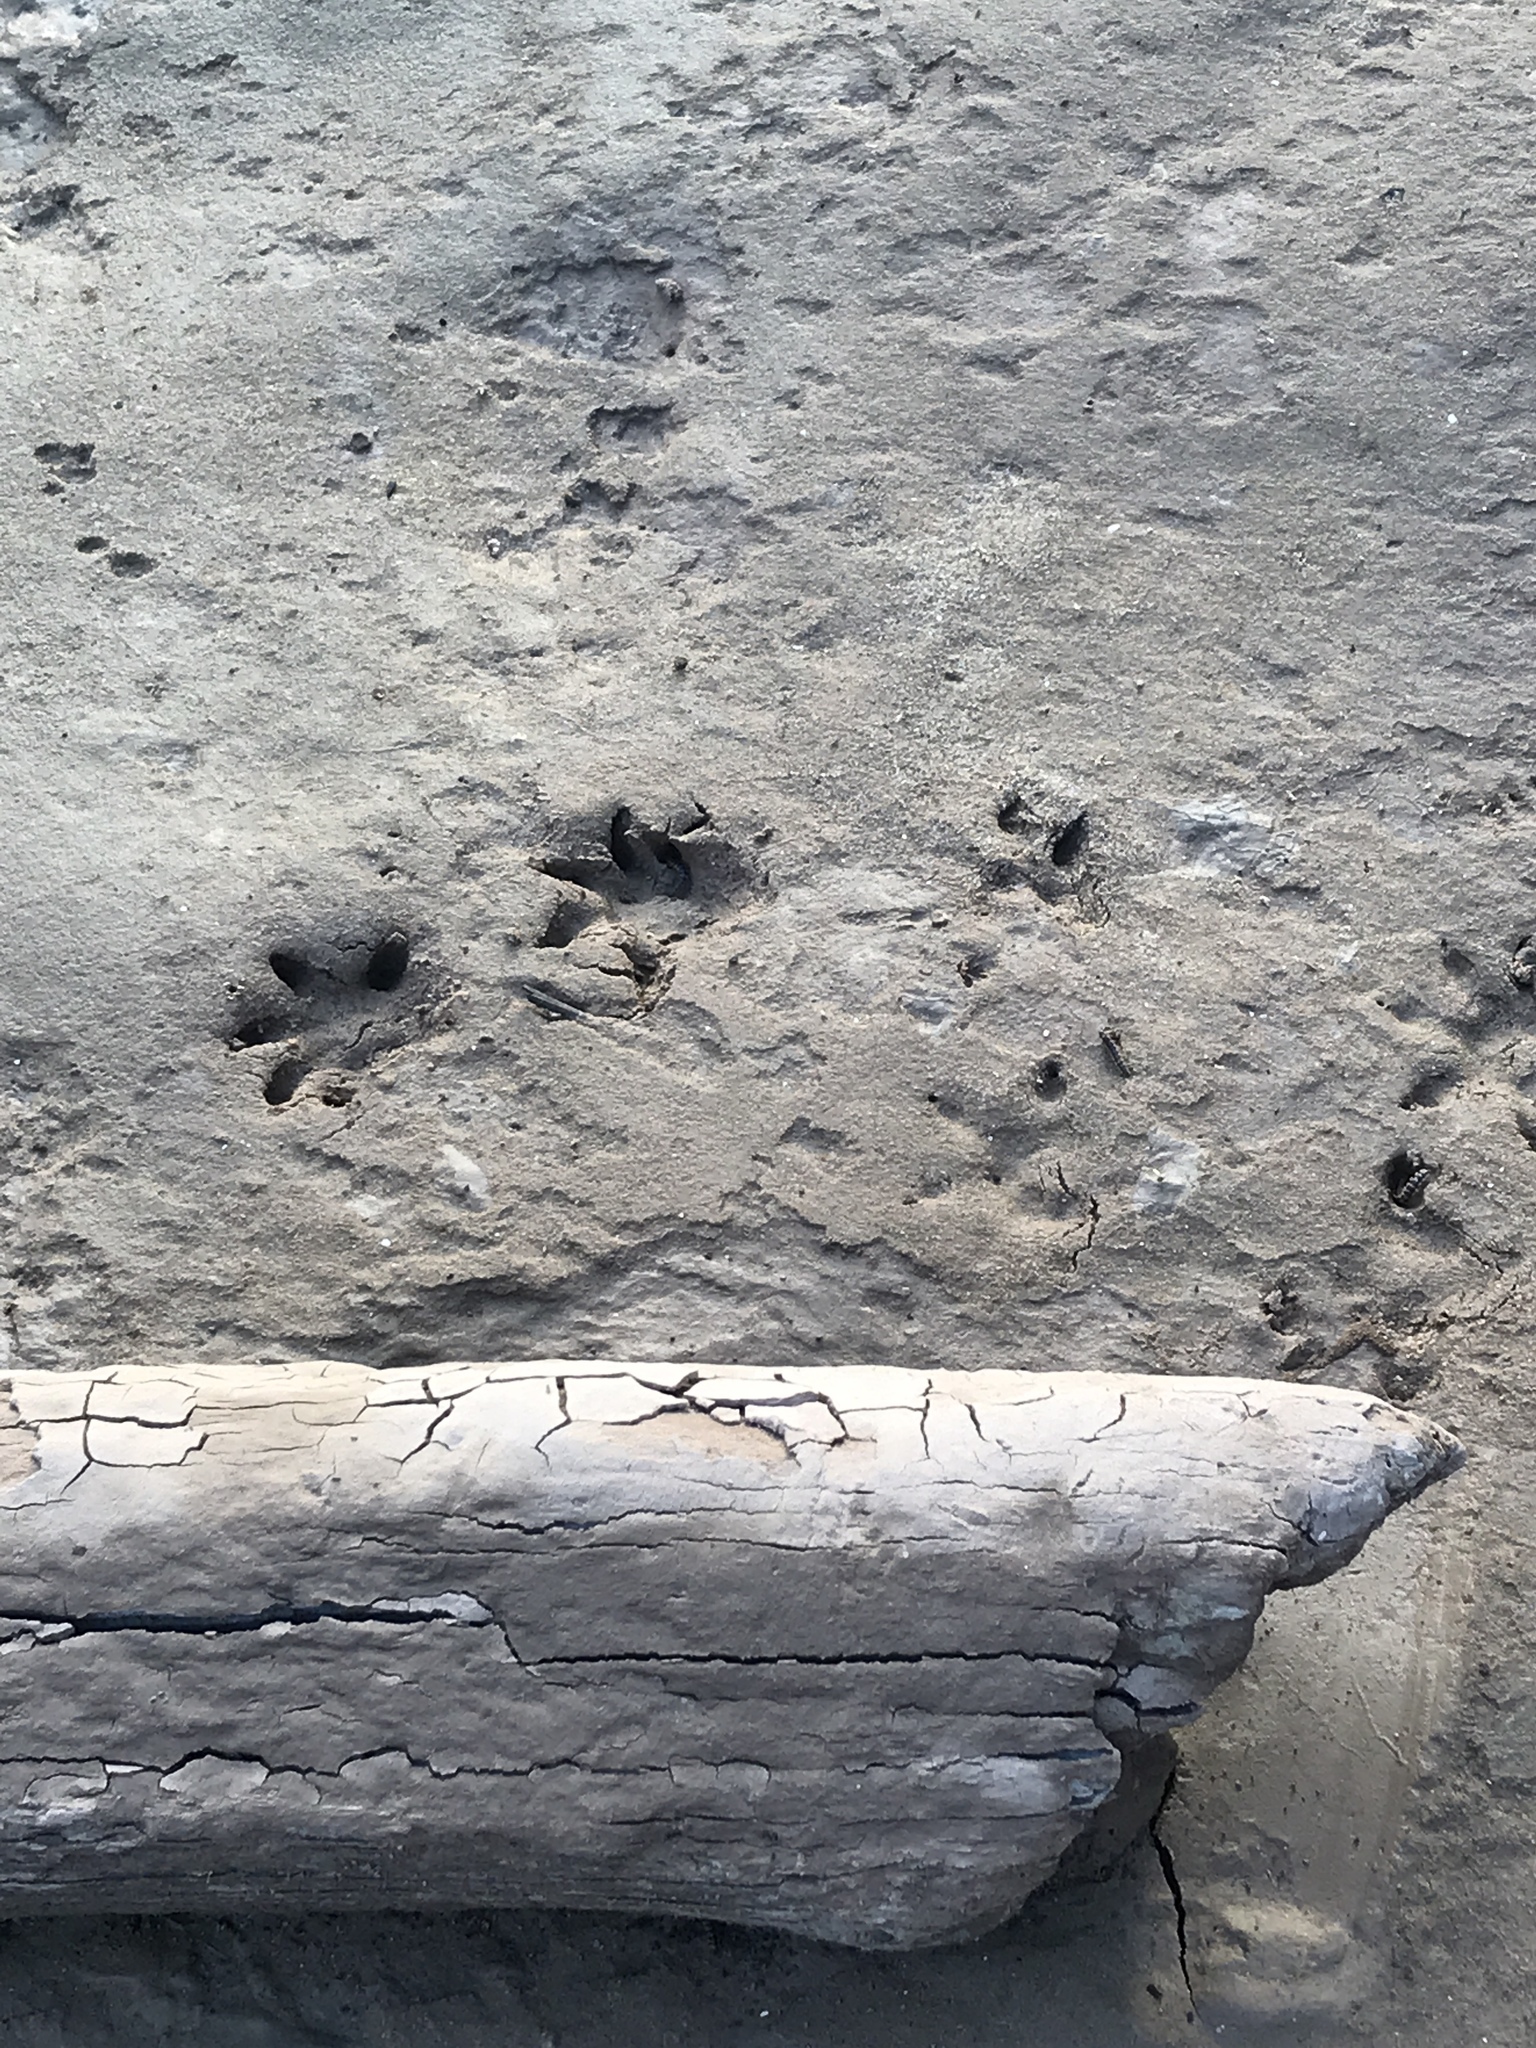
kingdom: Animalia
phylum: Chordata
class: Mammalia
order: Didelphimorphia
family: Didelphidae
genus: Didelphis
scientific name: Didelphis virginiana
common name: Virginia opossum
